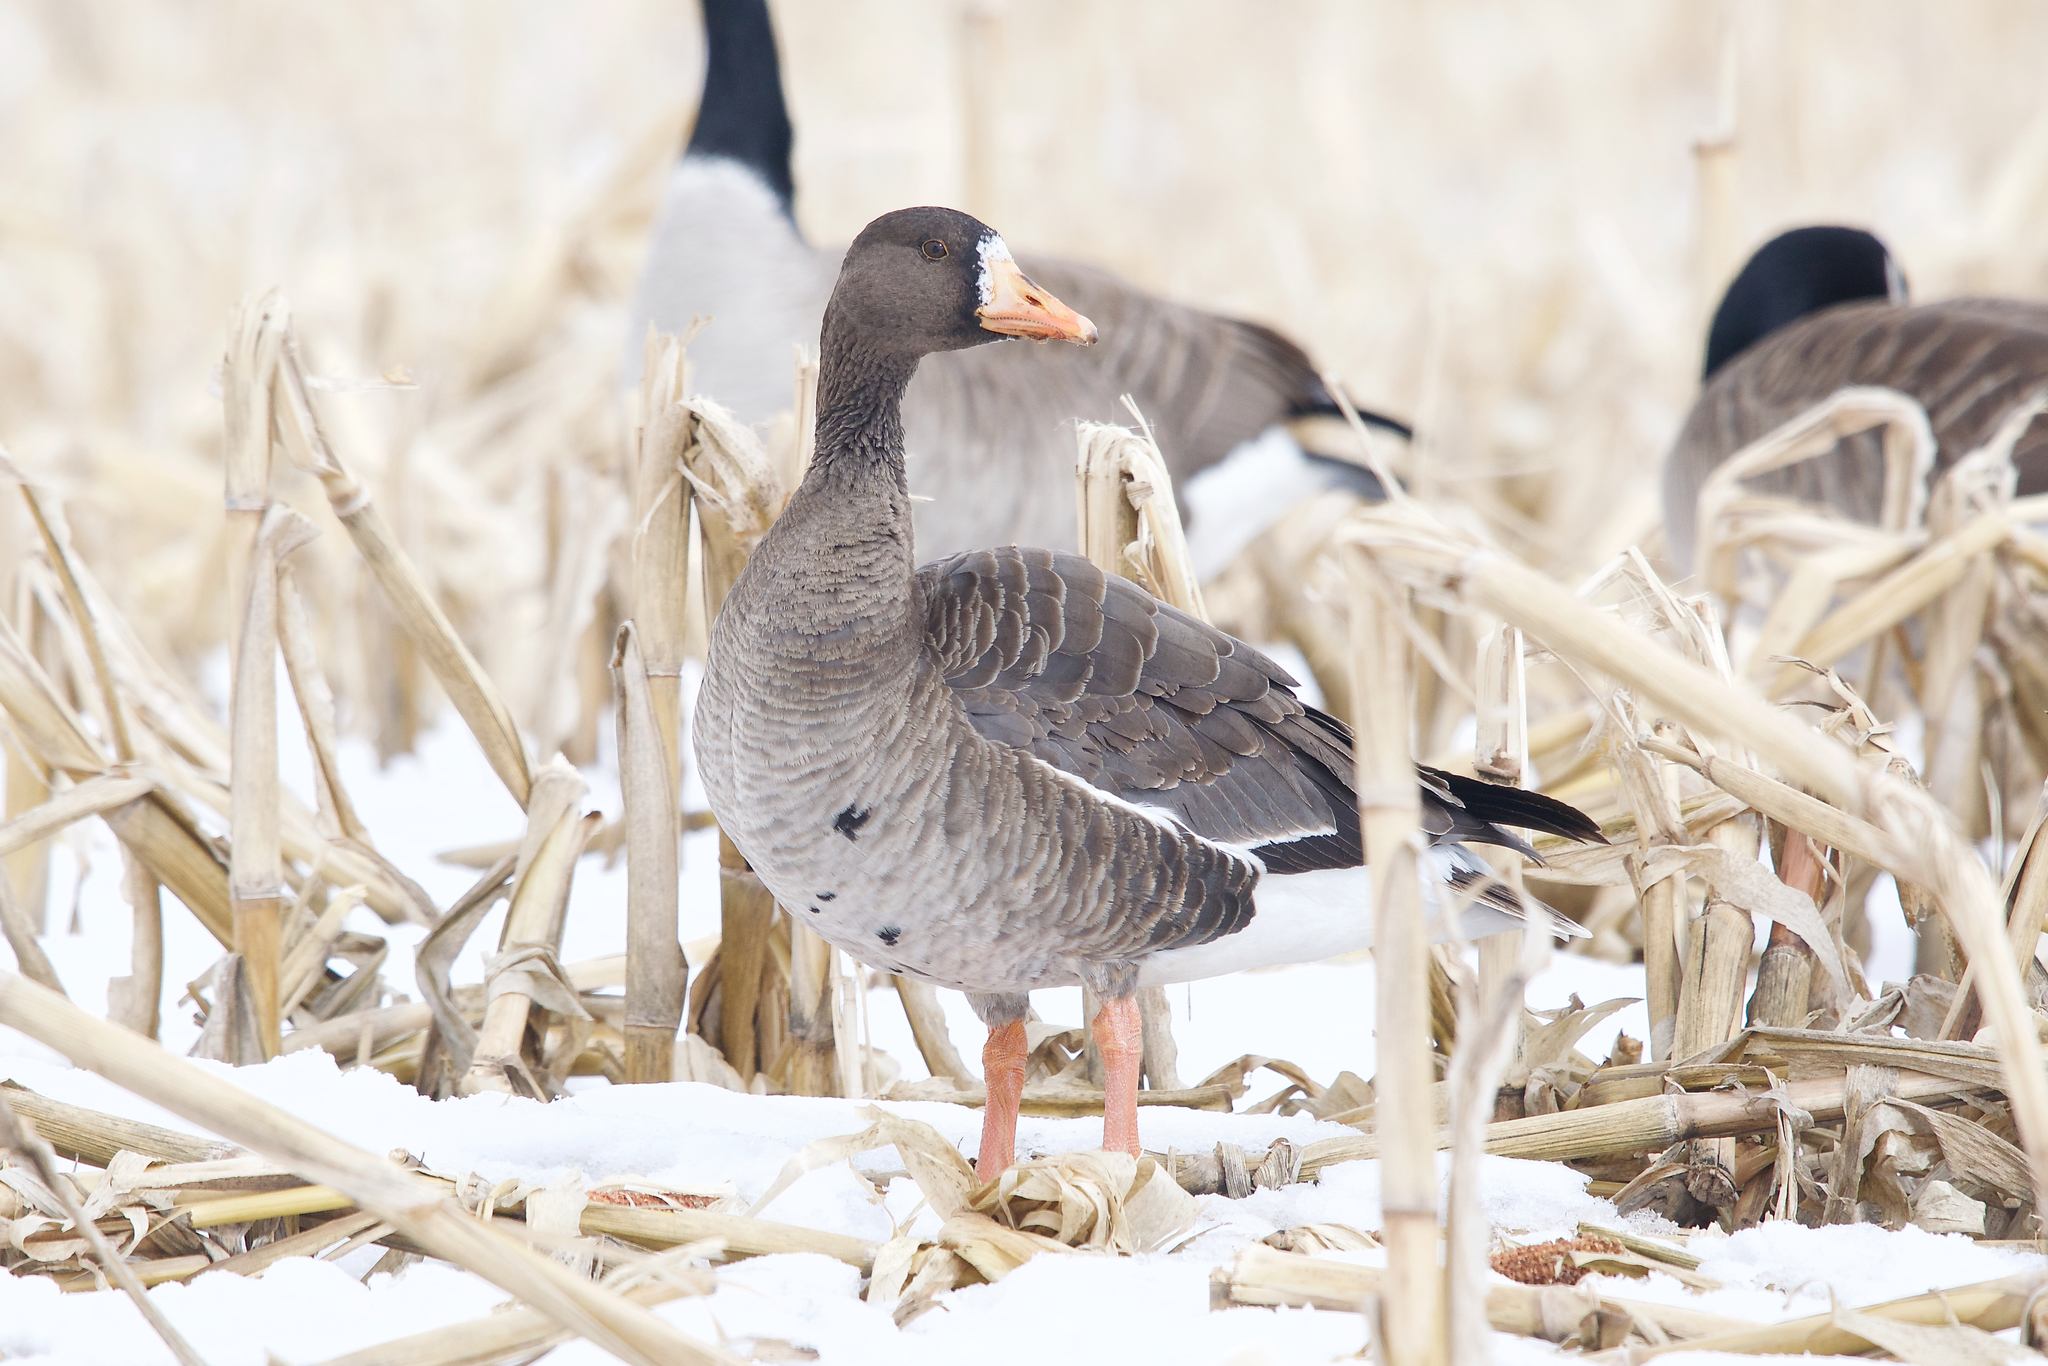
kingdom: Animalia
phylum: Chordata
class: Aves
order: Anseriformes
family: Anatidae
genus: Anser
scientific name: Anser albifrons
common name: Greater white-fronted goose
